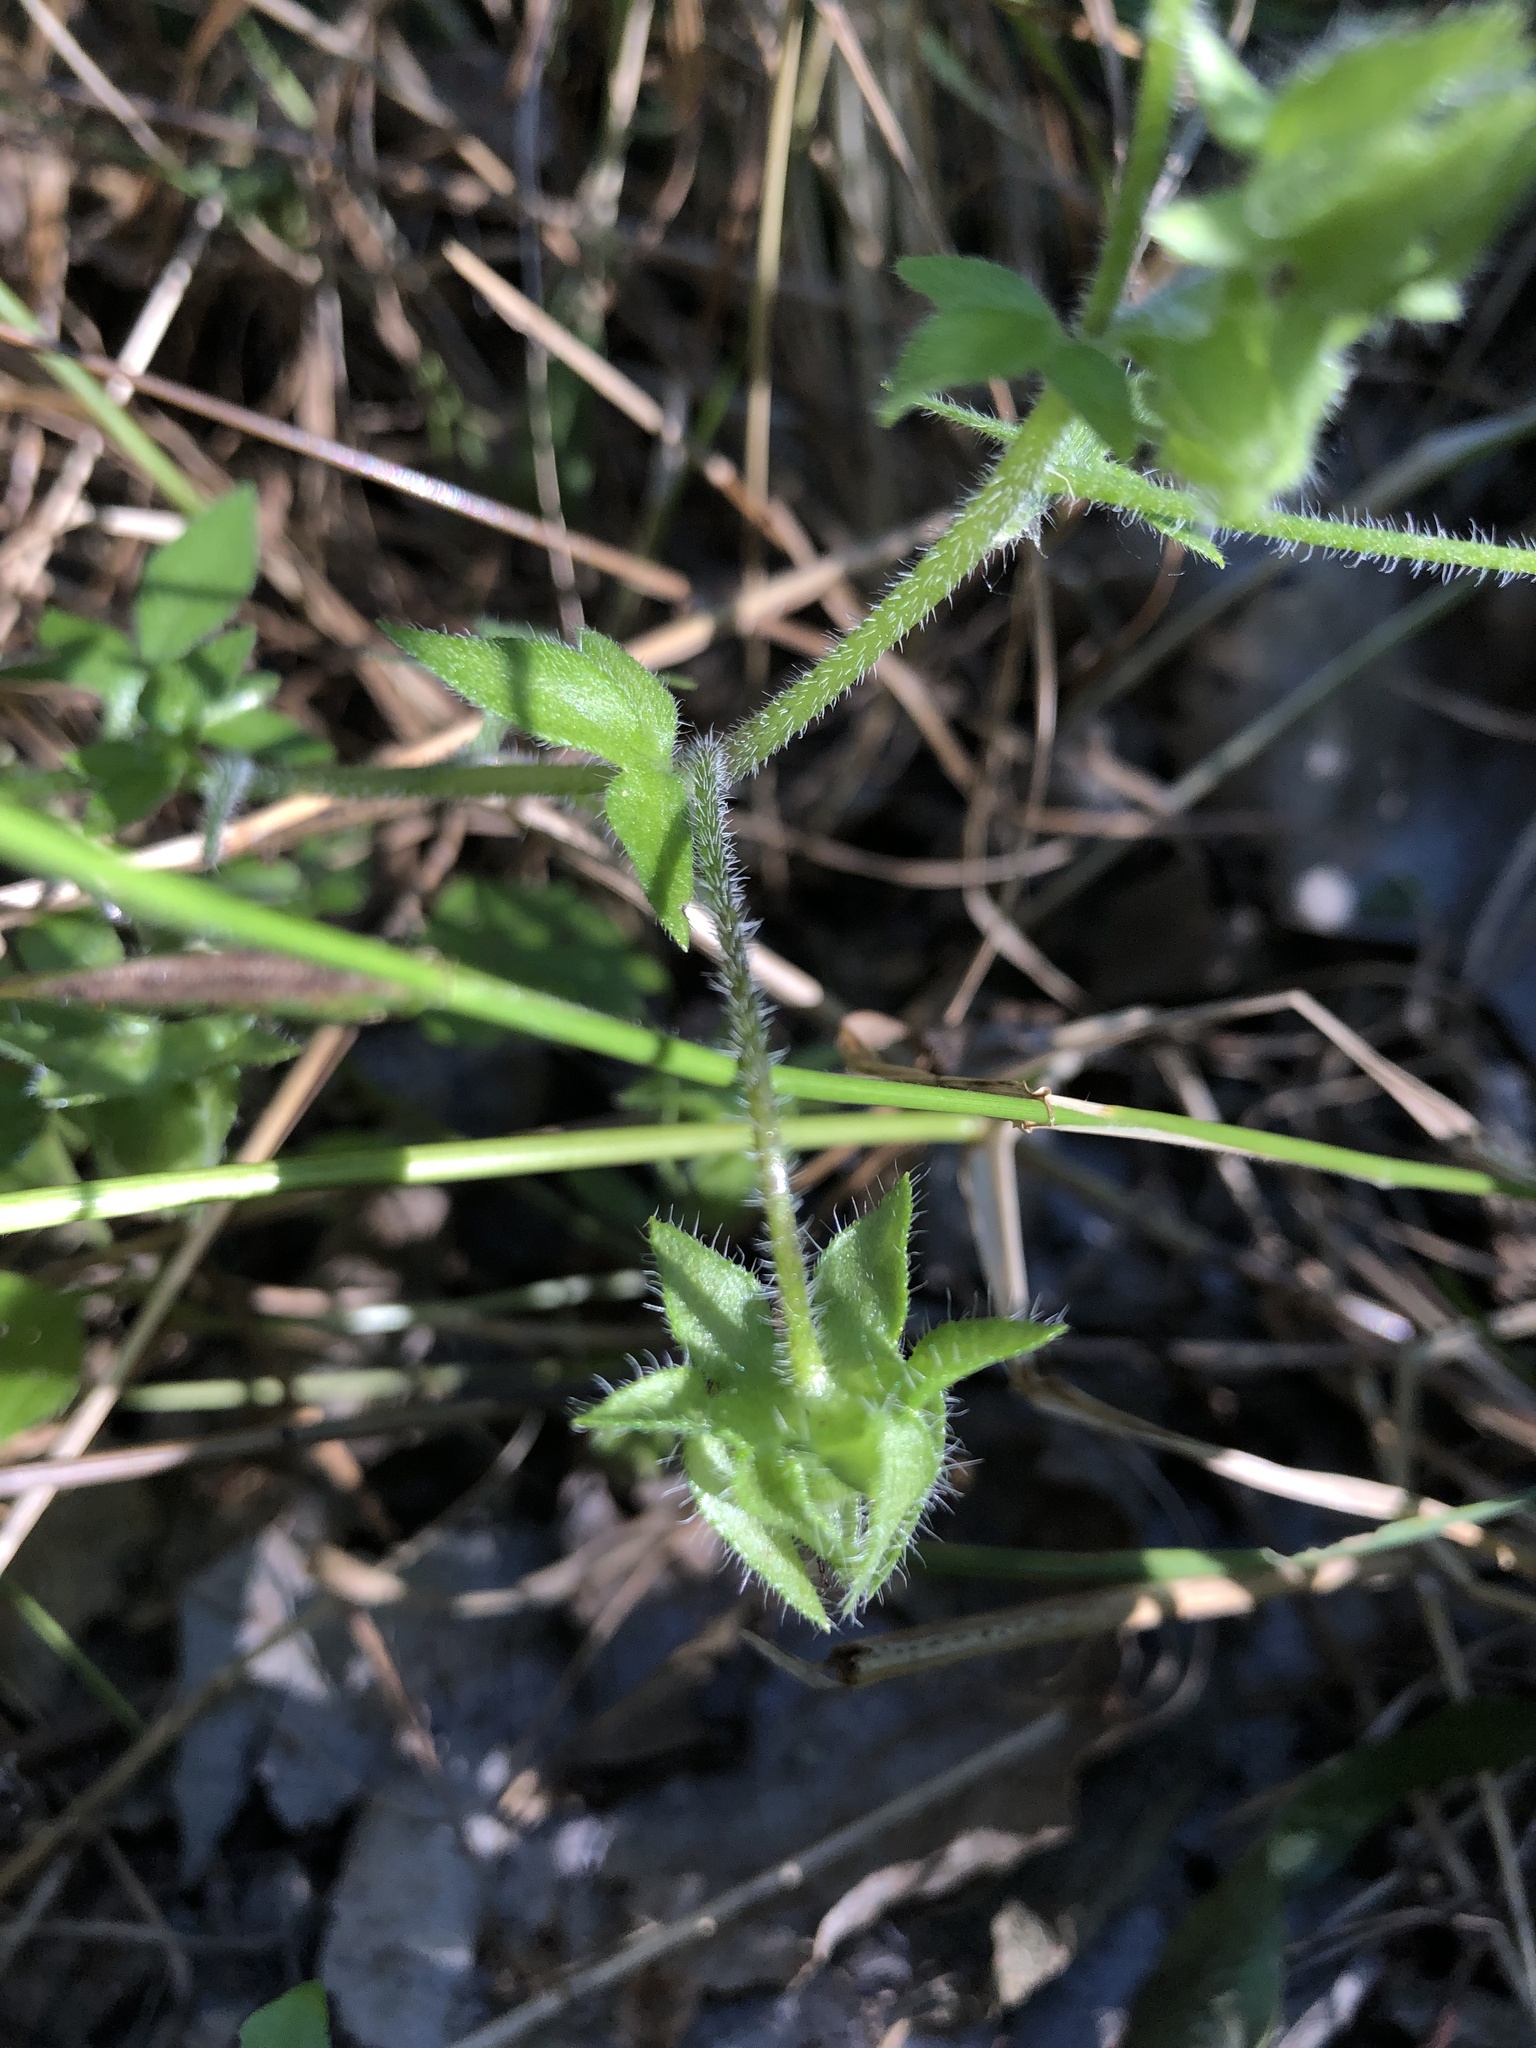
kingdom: Plantae
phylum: Tracheophyta
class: Magnoliopsida
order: Boraginales
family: Hydrophyllaceae
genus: Nemophila
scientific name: Nemophila phacelioides
